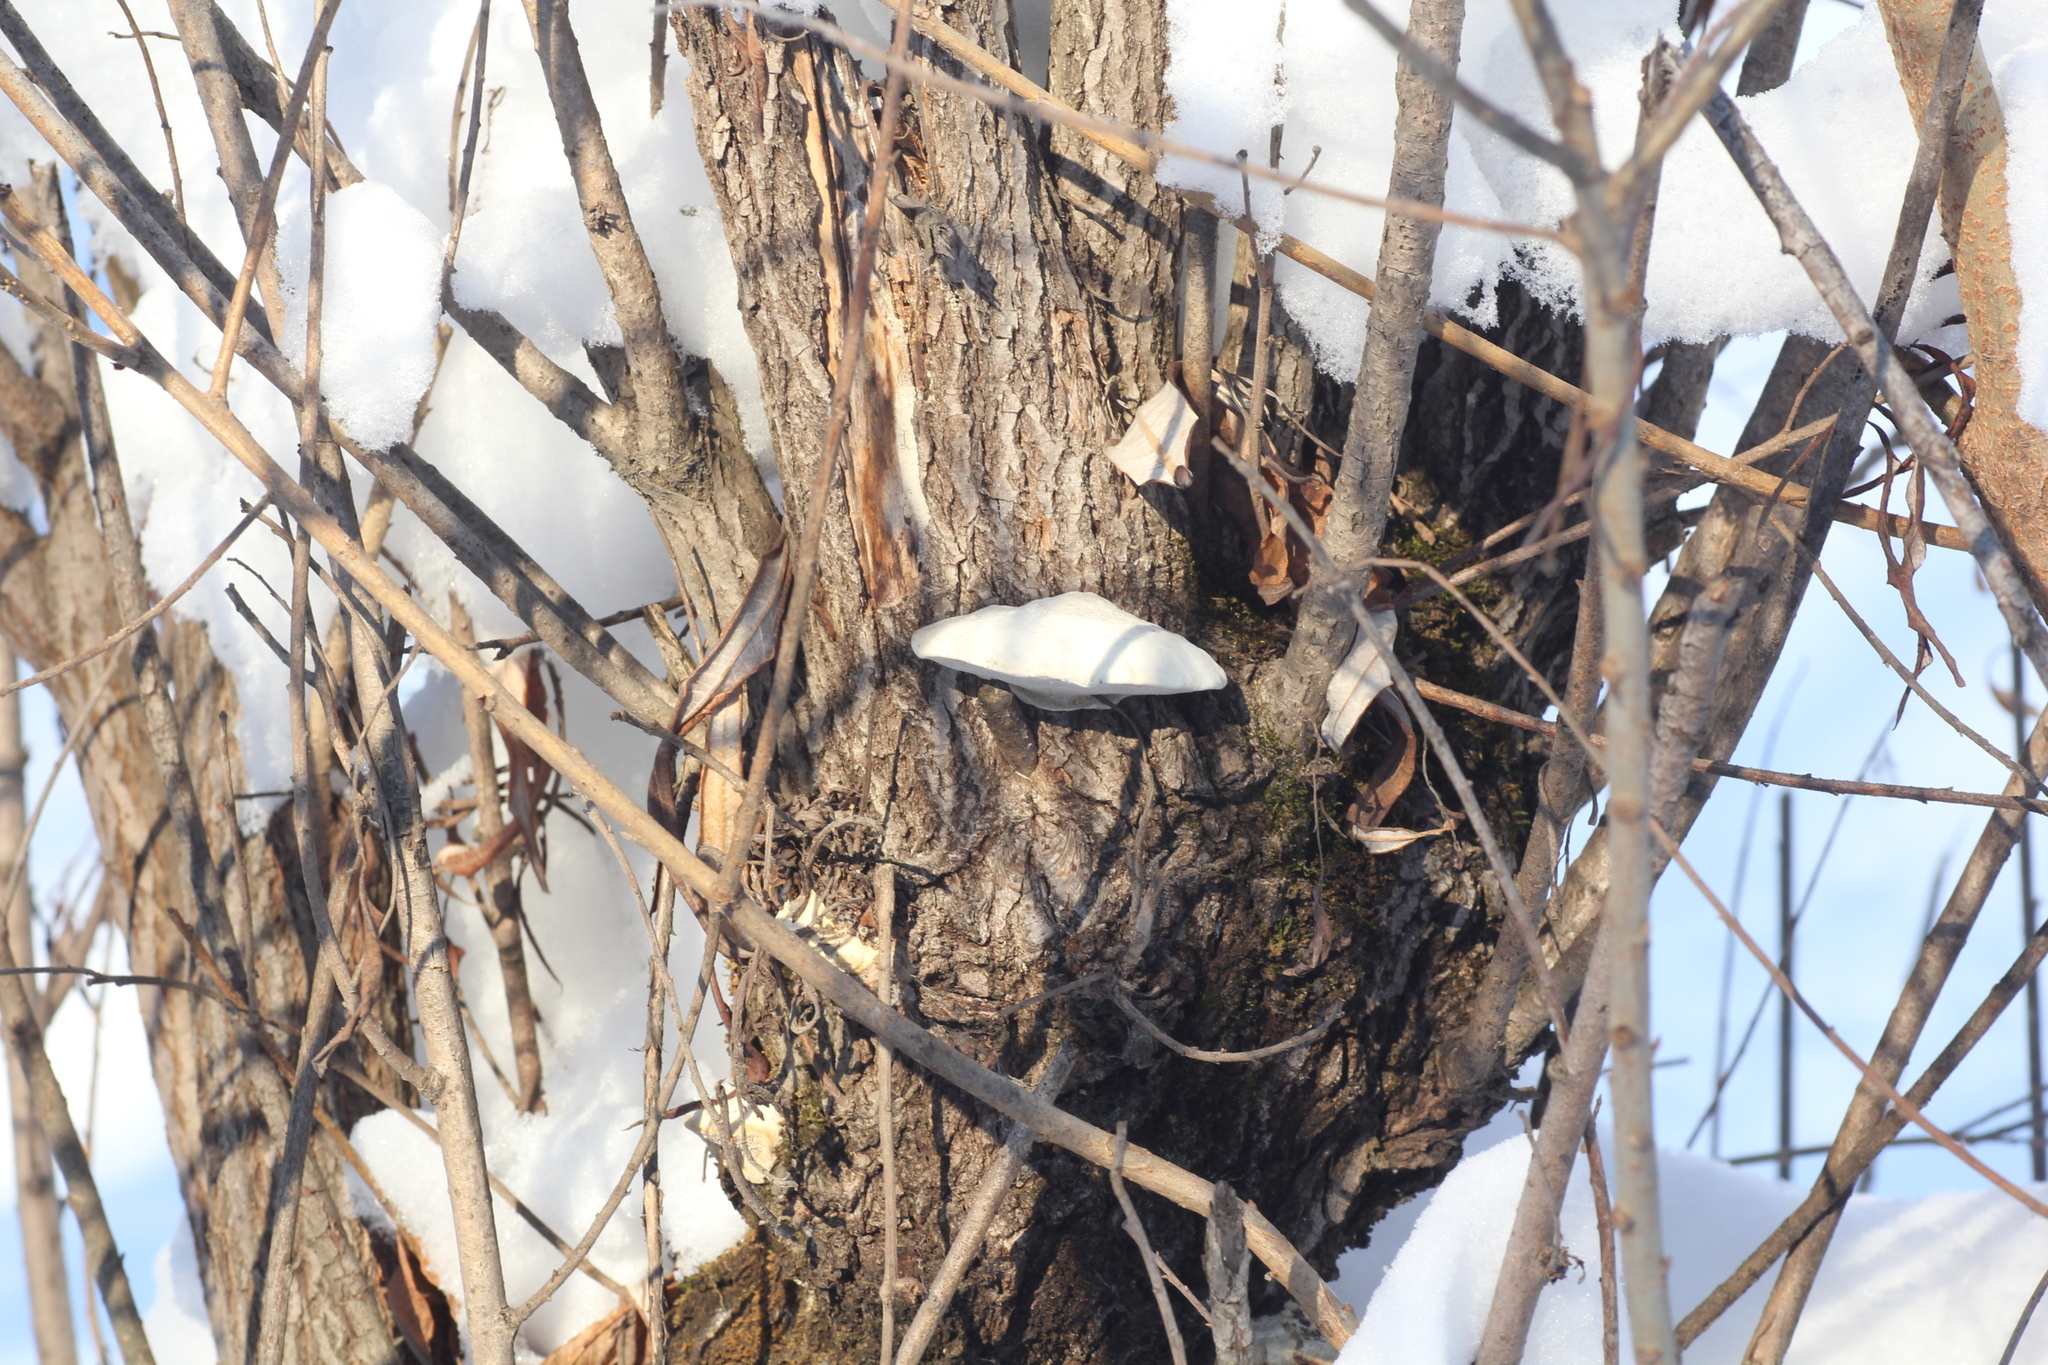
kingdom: Fungi
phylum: Basidiomycota
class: Agaricomycetes
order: Polyporales
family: Polyporaceae
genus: Trametes
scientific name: Trametes suaveolens
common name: Fragrant bracket
